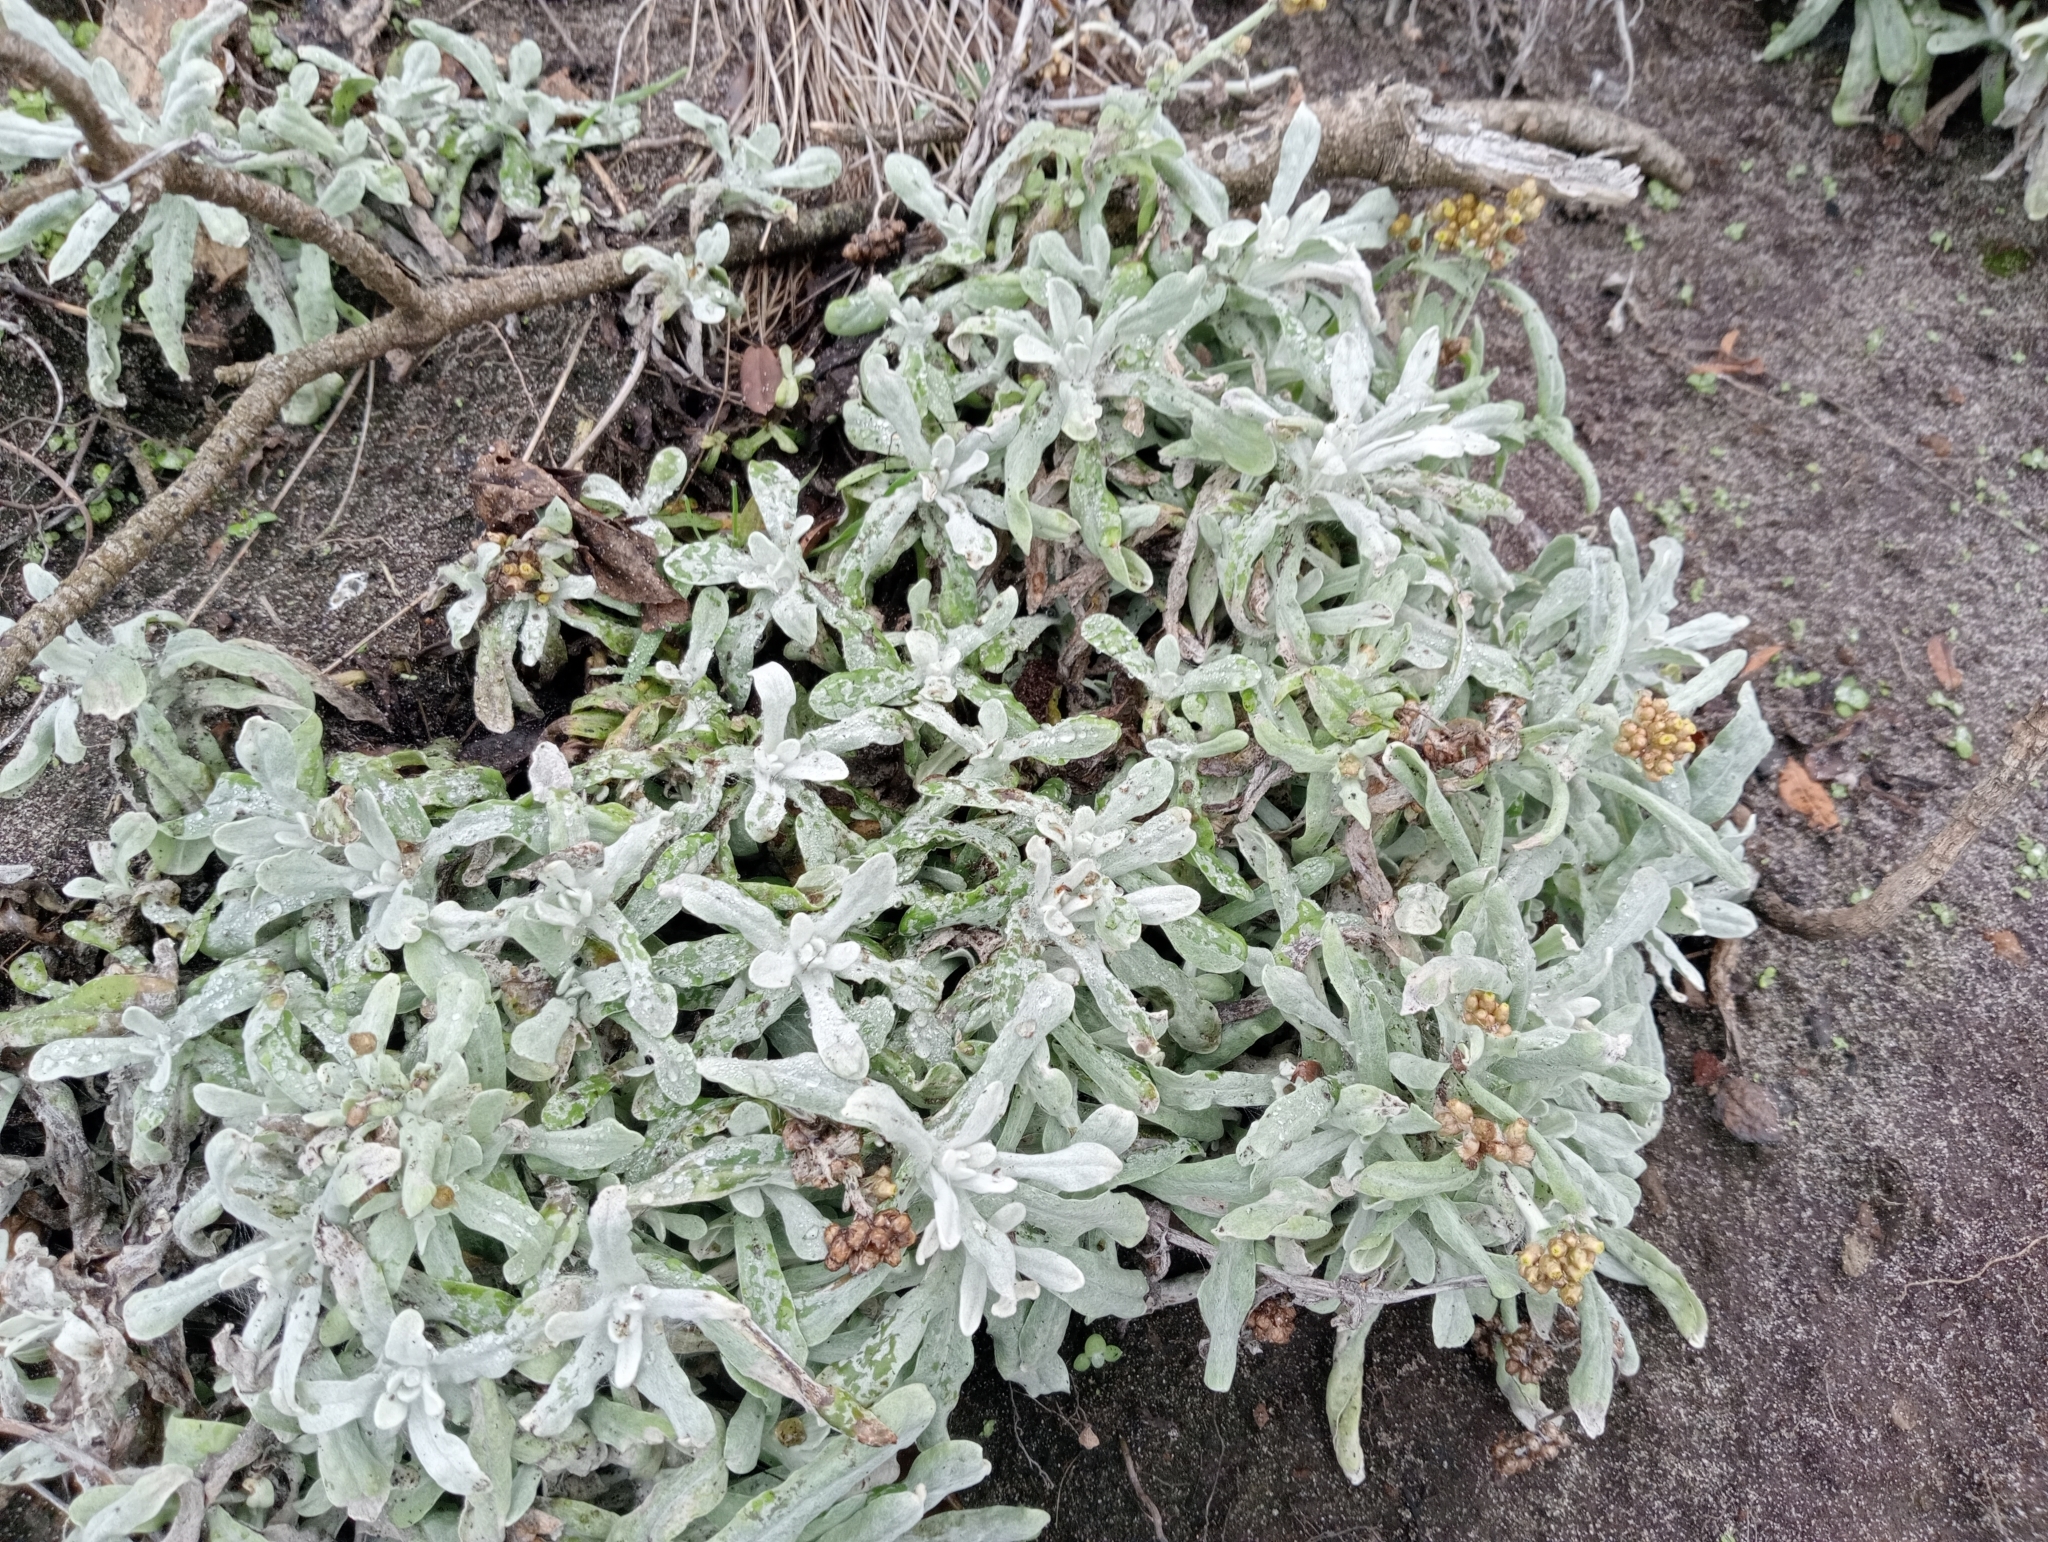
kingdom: Plantae
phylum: Tracheophyta
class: Magnoliopsida
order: Asterales
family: Asteraceae
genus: Helichrysum
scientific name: Helichrysum luteoalbum
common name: Daisy
